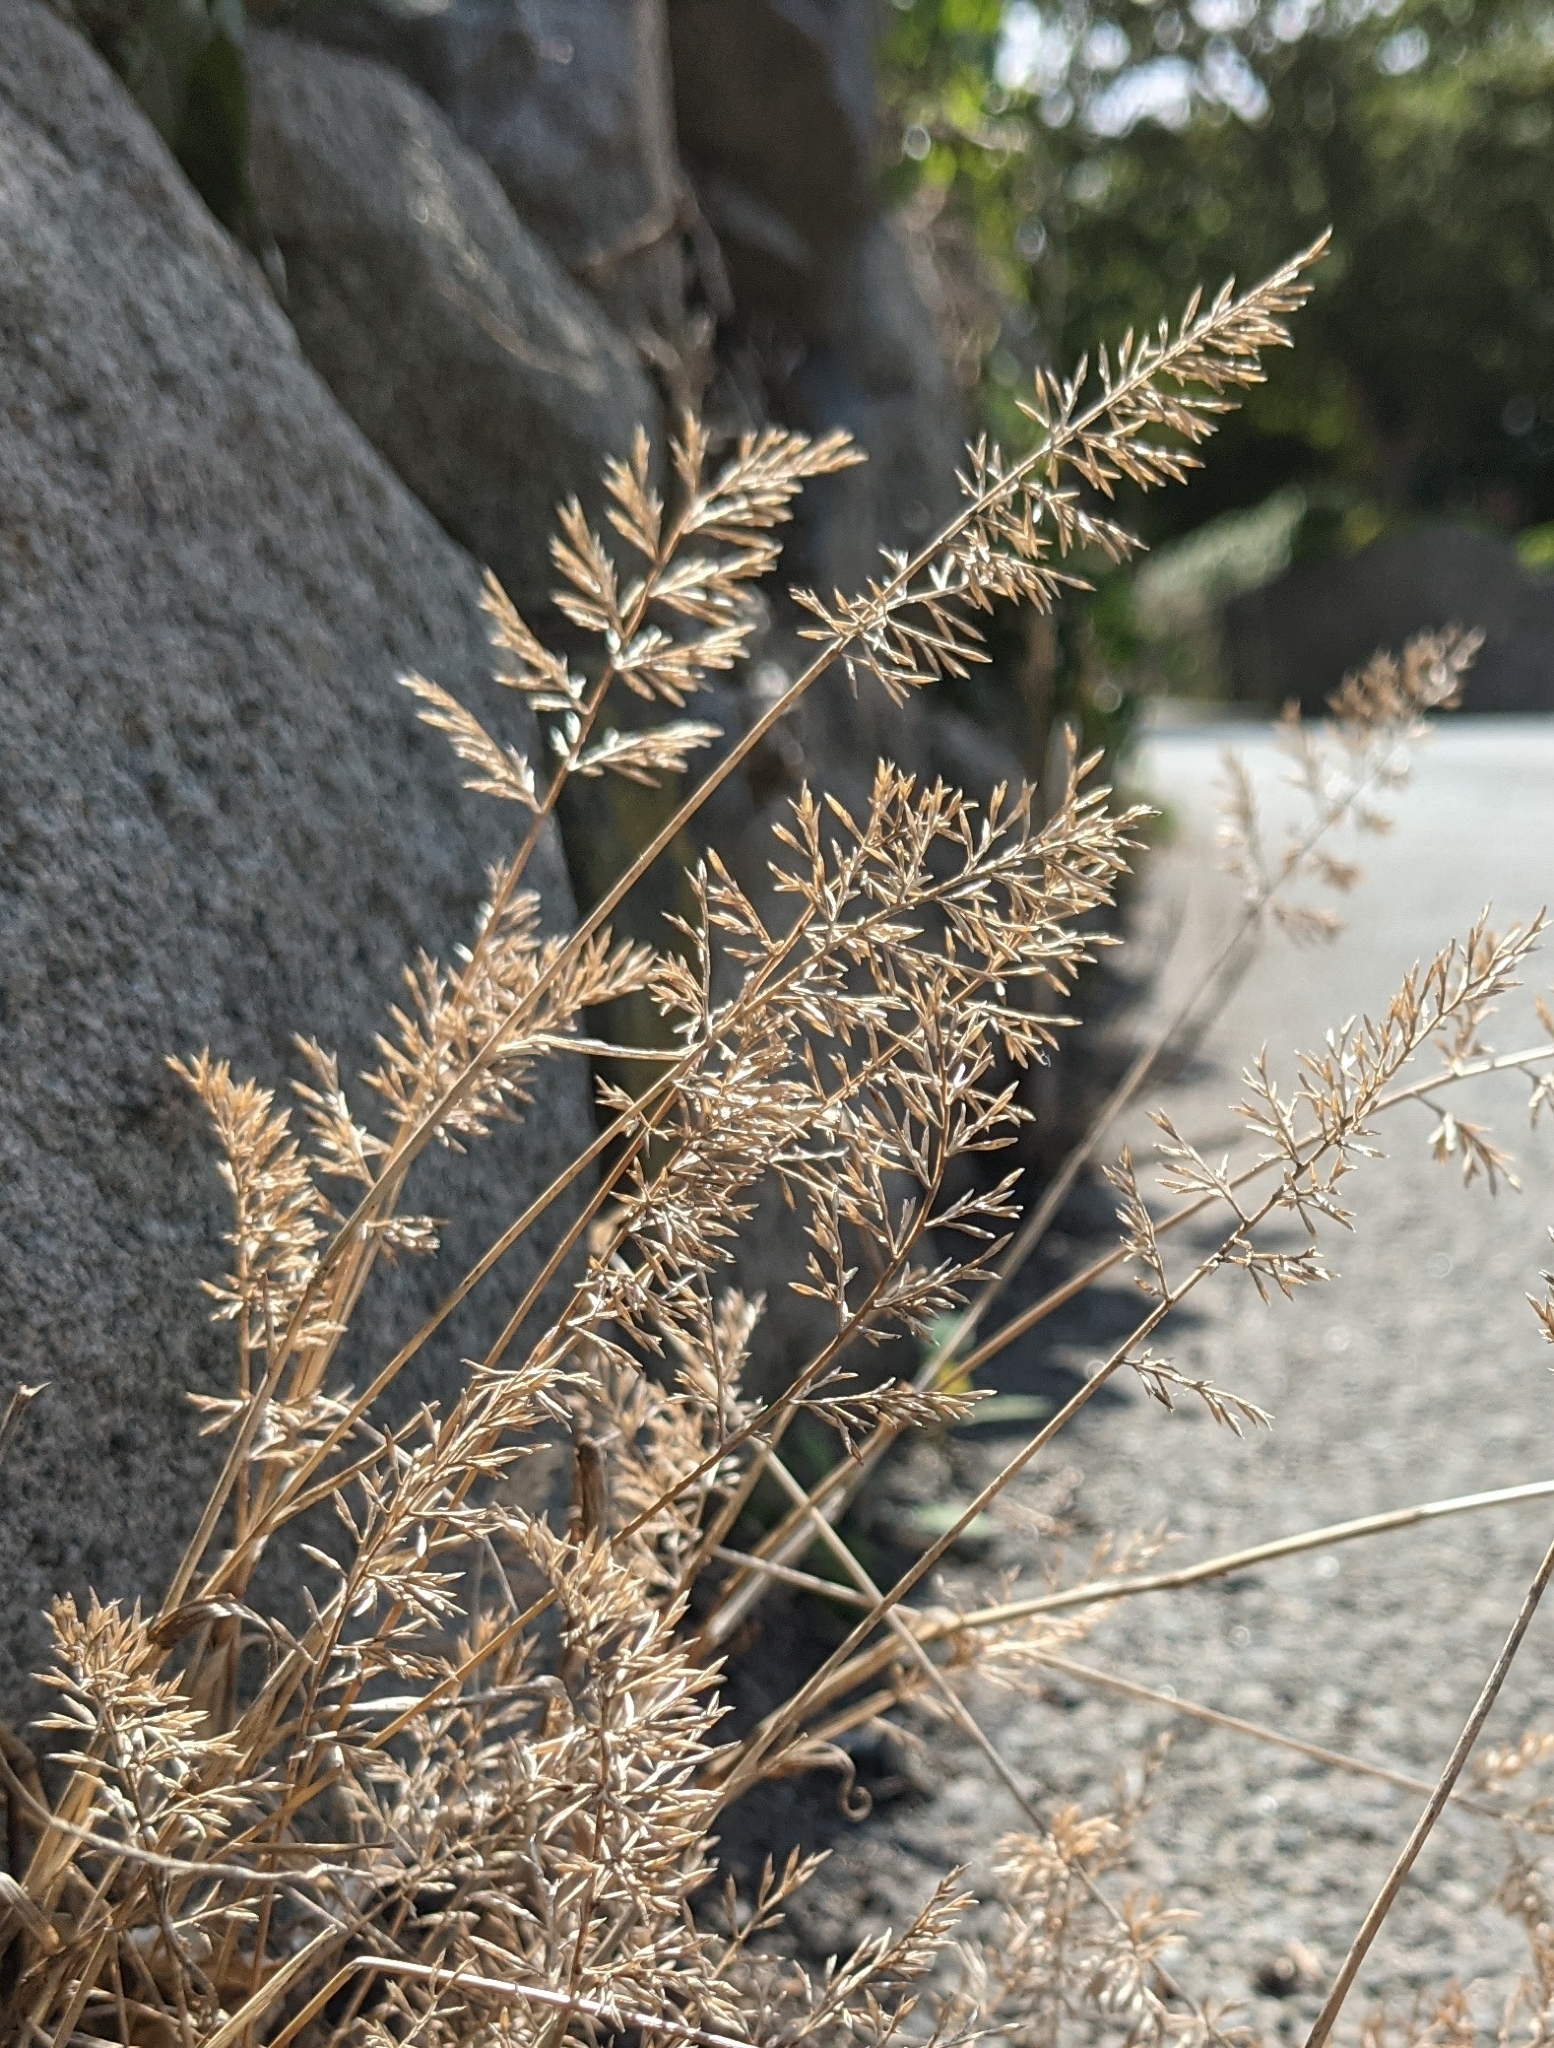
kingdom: Plantae
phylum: Tracheophyta
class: Liliopsida
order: Poales
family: Poaceae
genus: Catapodium
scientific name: Catapodium rigidum
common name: Fern-grass
